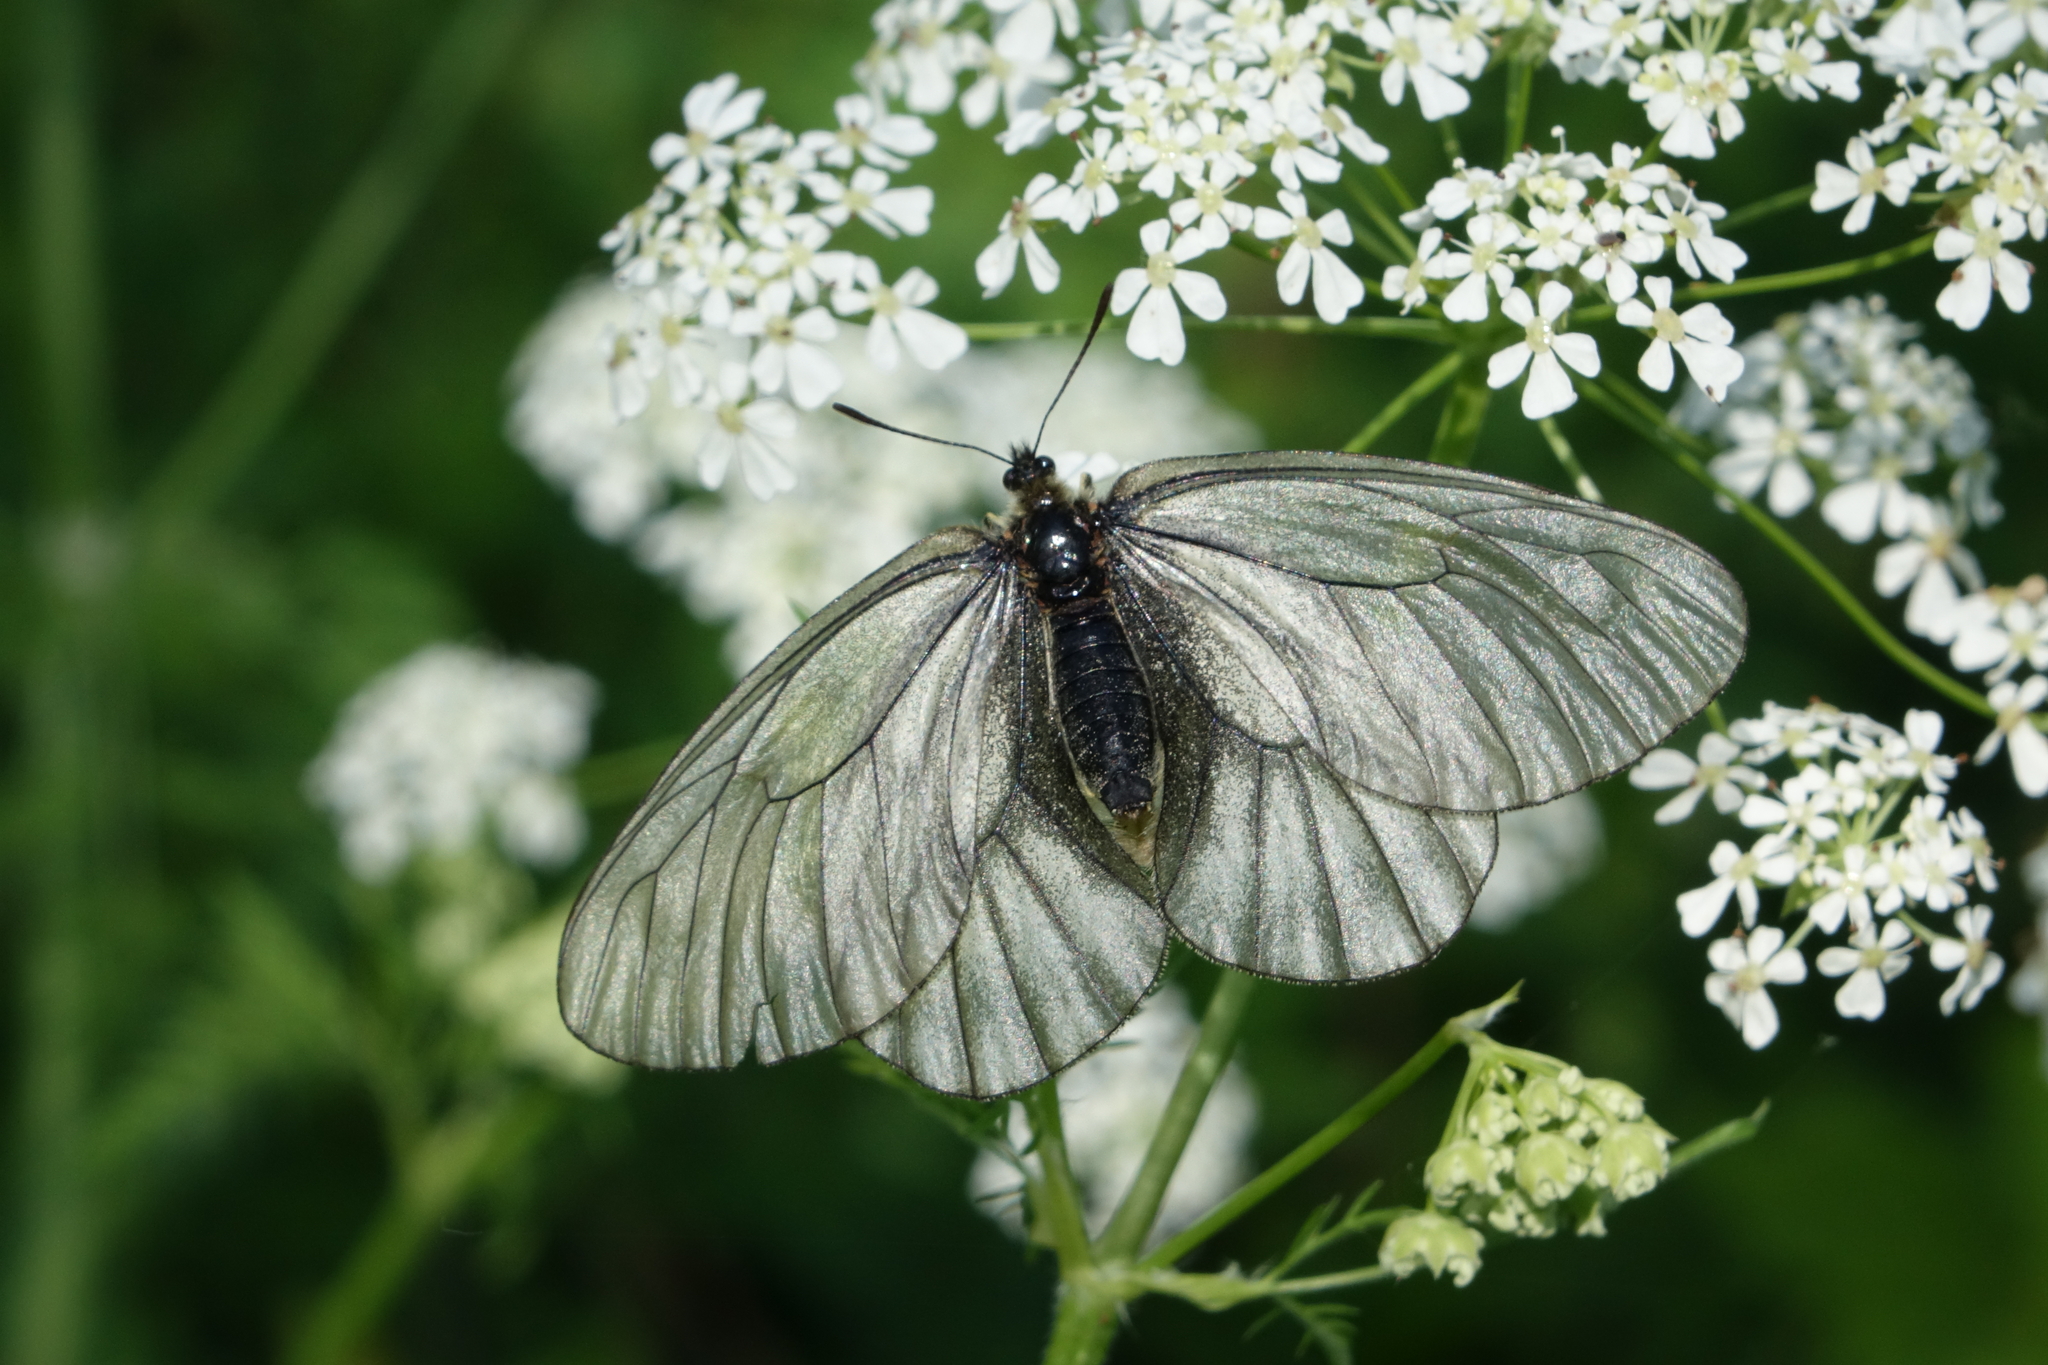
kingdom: Animalia
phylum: Arthropoda
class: Insecta
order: Lepidoptera
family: Papilionidae
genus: Parnassius
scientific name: Parnassius stubbendorfii
